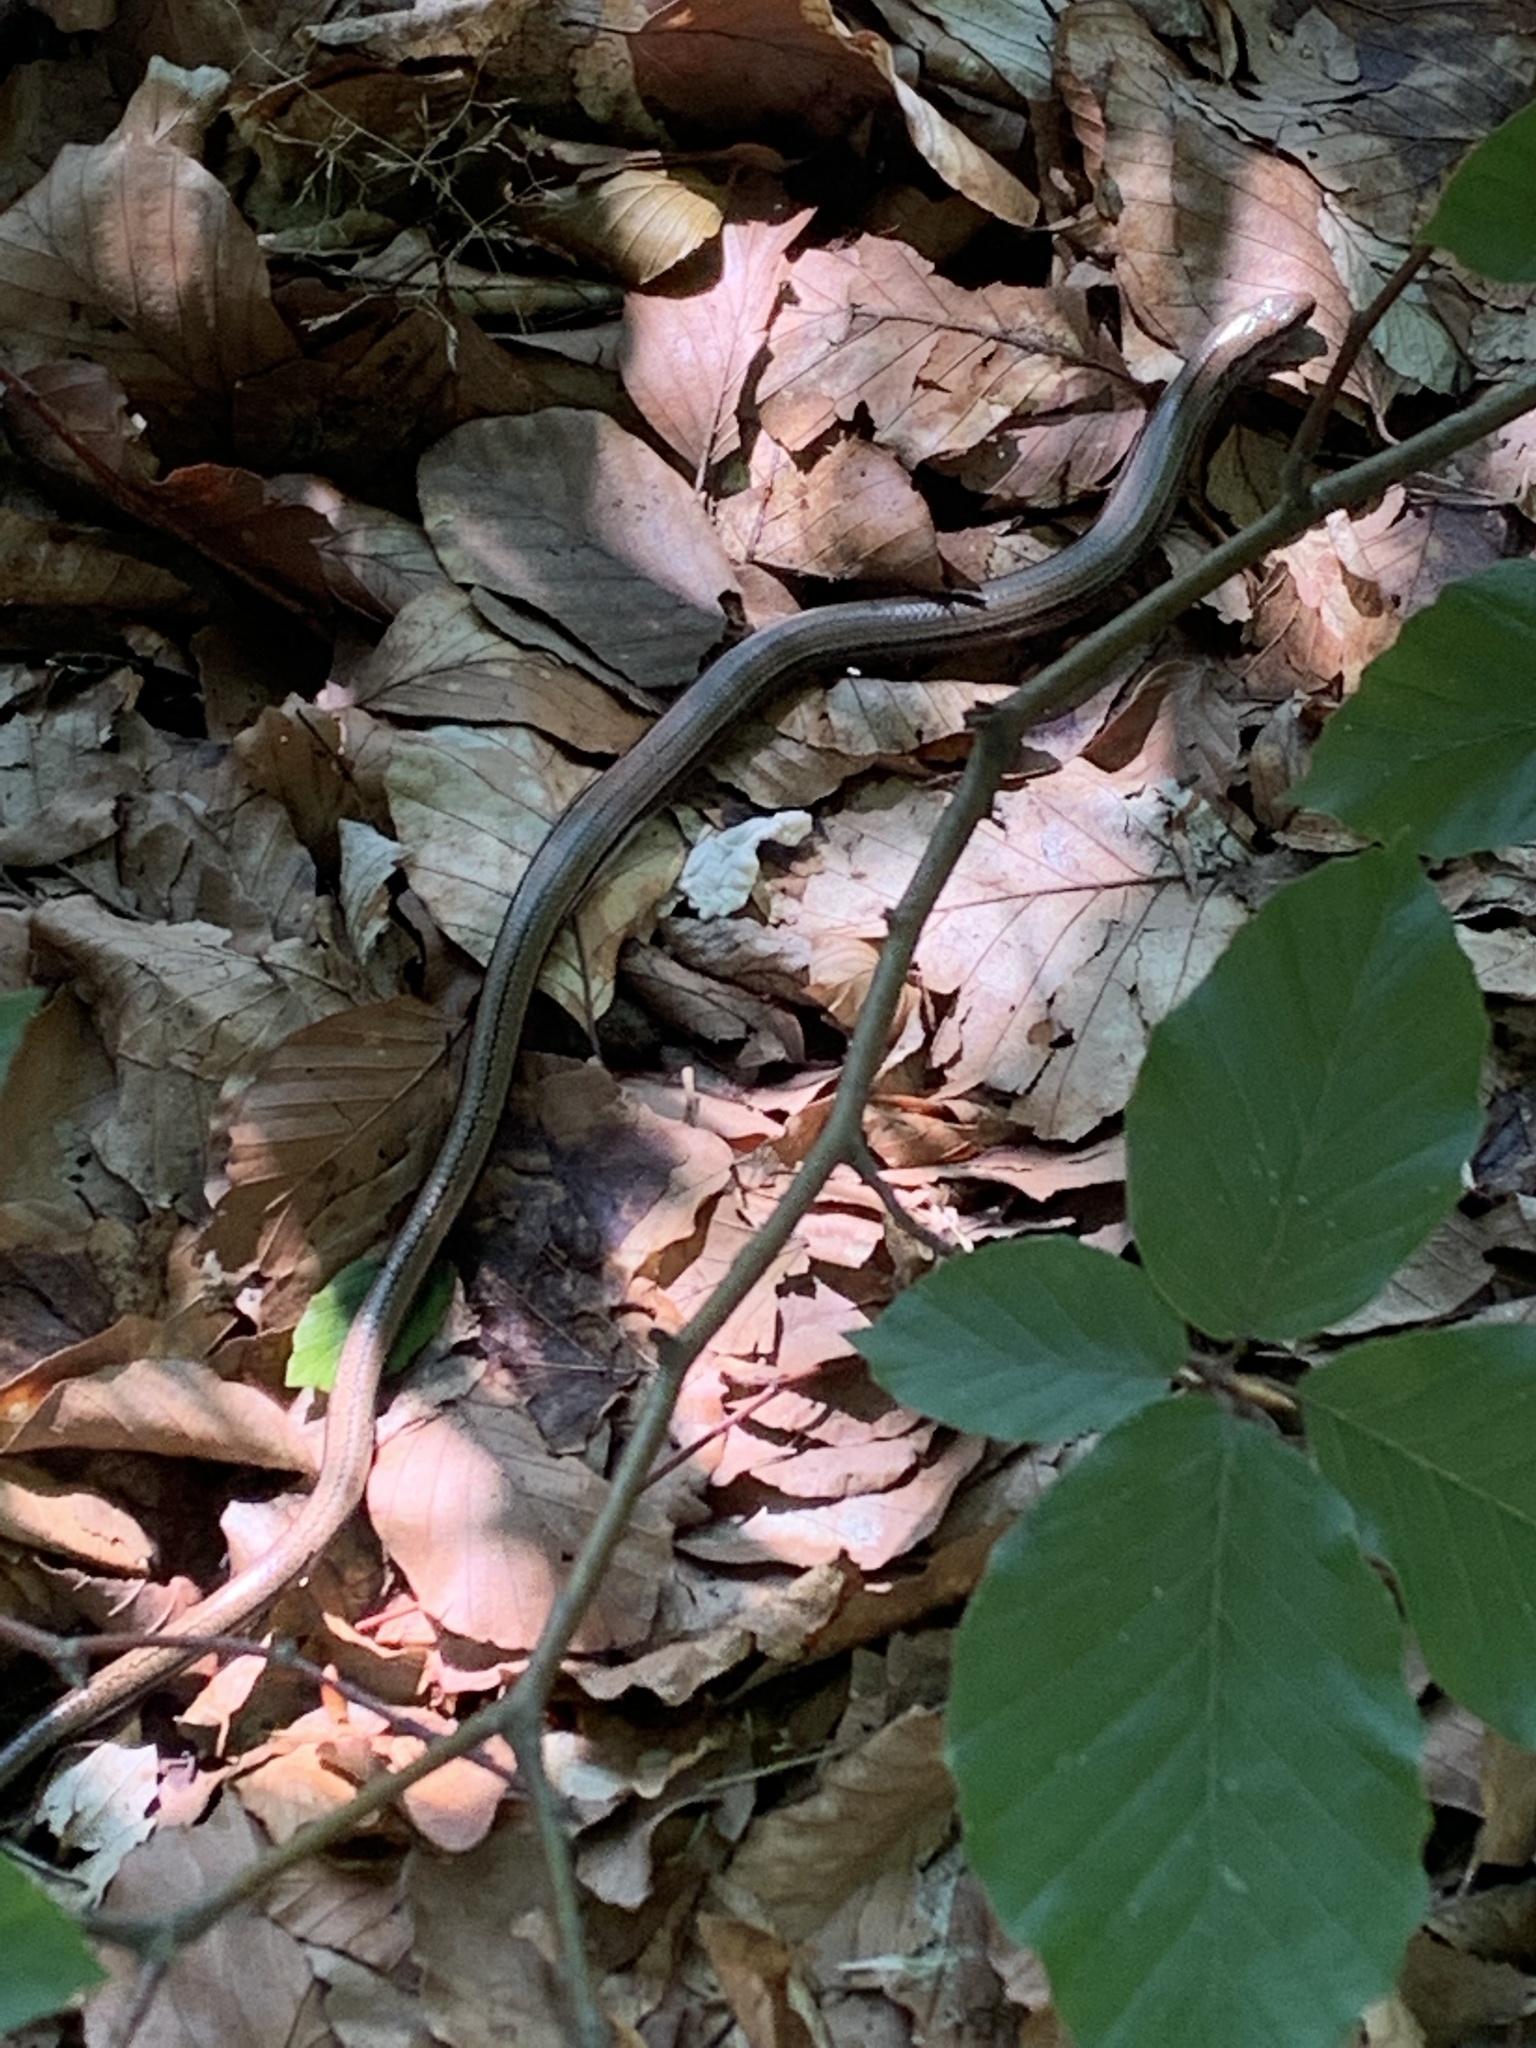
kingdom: Animalia
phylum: Chordata
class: Squamata
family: Anguidae
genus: Anguis
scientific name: Anguis fragilis
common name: Slow worm
